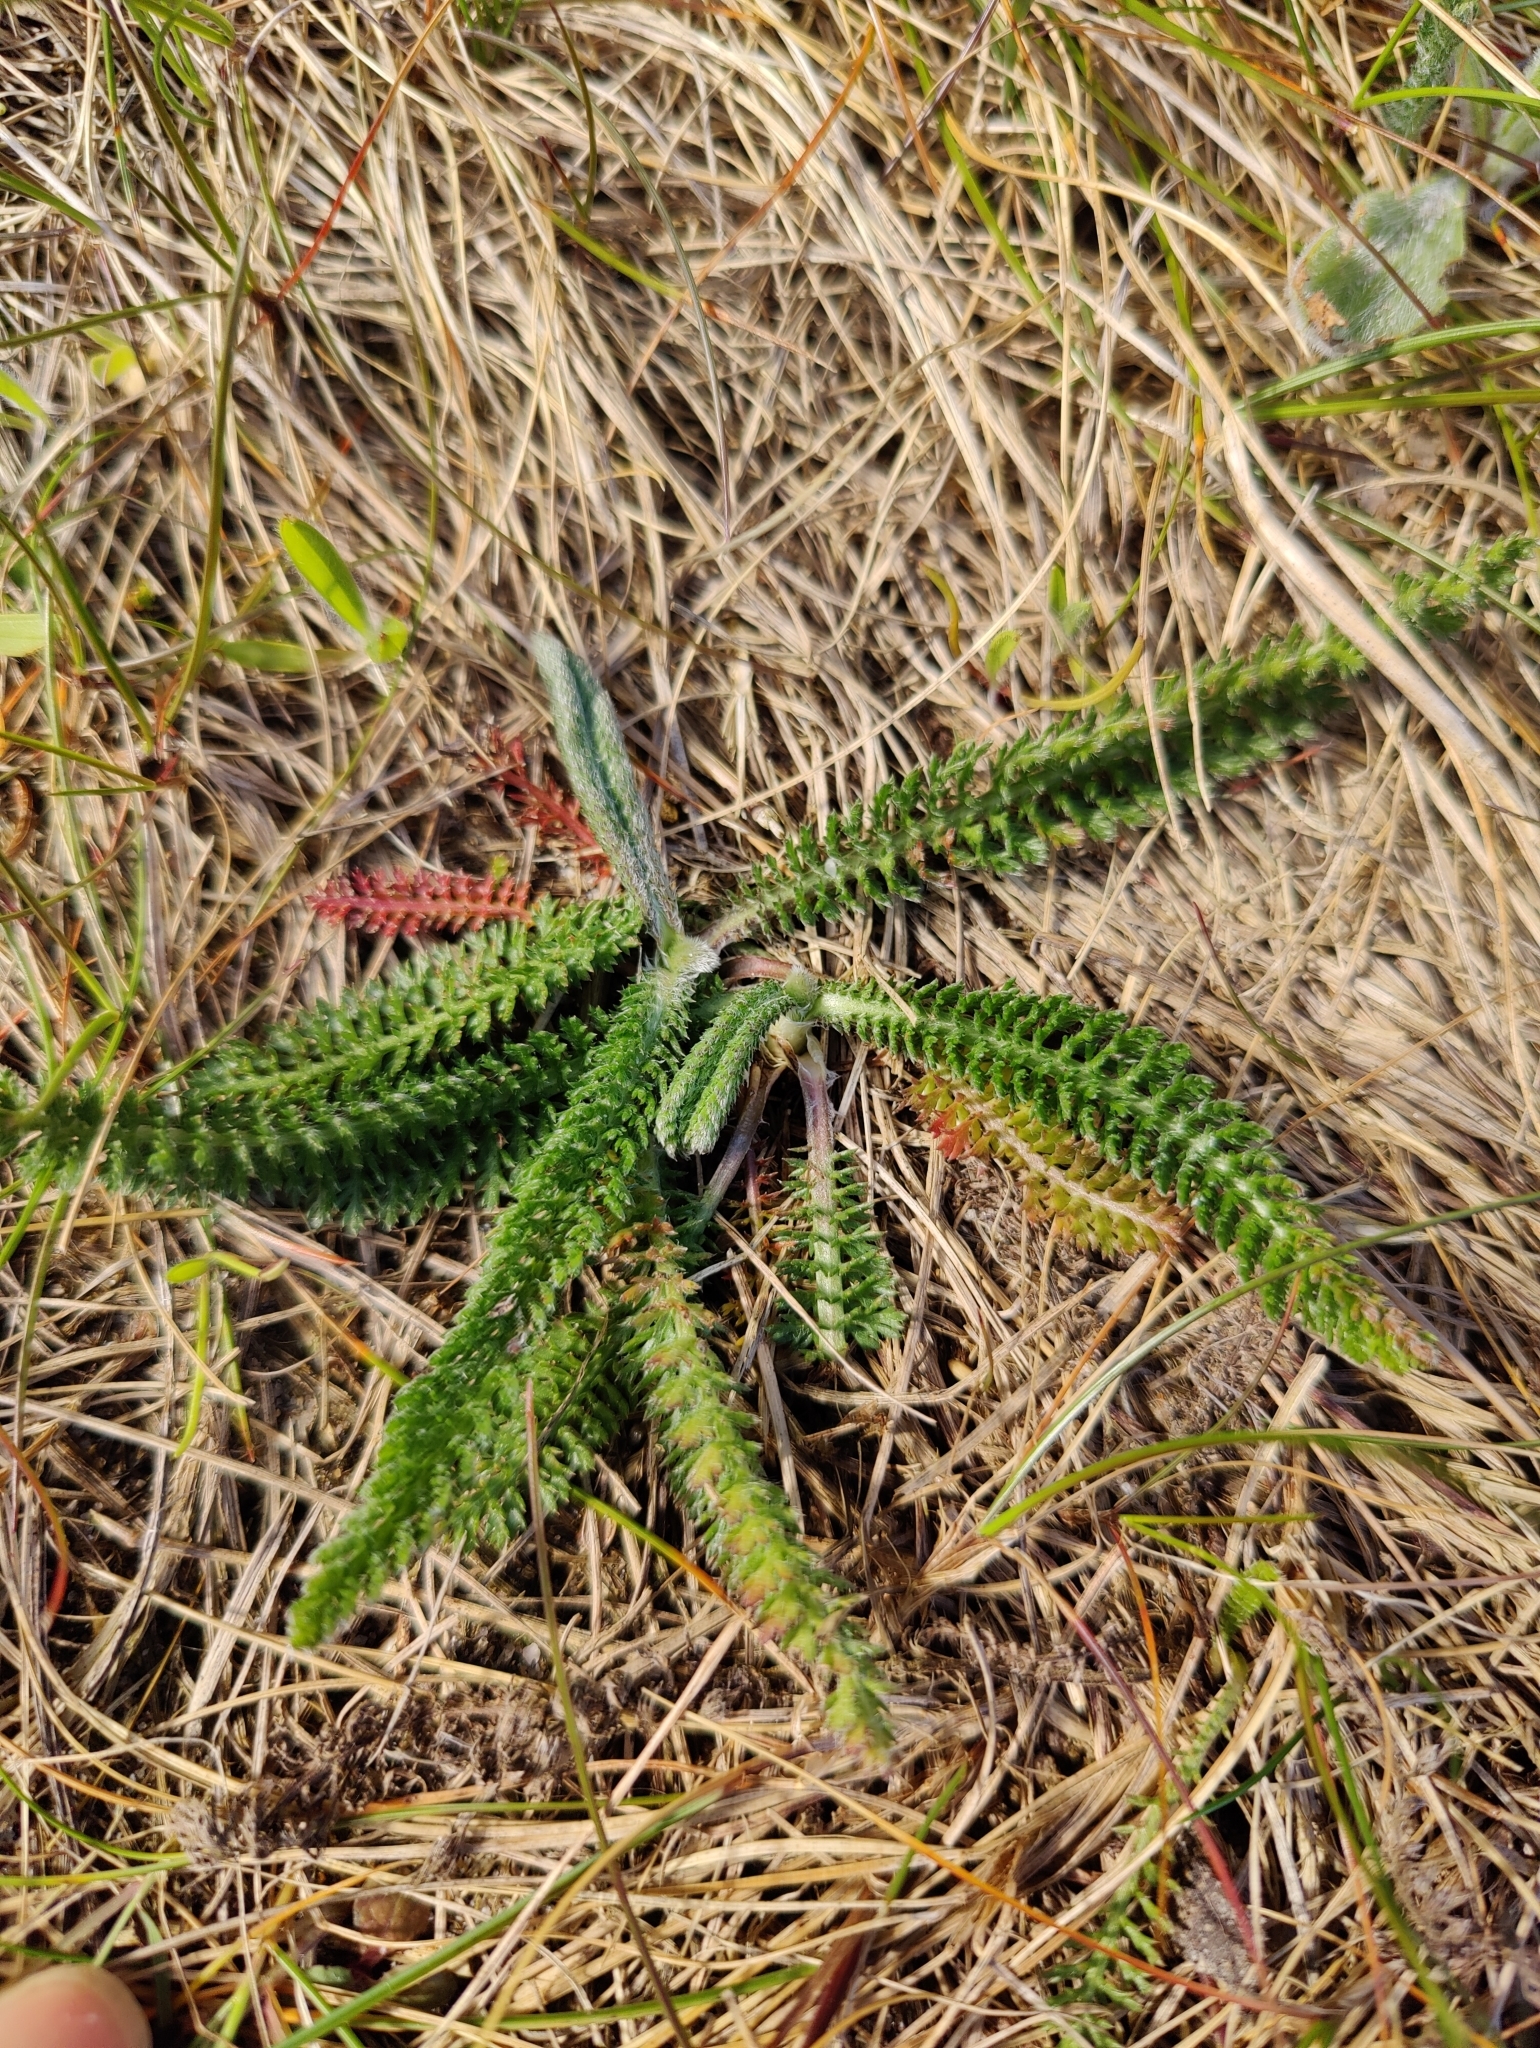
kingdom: Plantae
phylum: Tracheophyta
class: Magnoliopsida
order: Asterales
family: Asteraceae
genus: Achillea
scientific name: Achillea millefolium
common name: Yarrow
